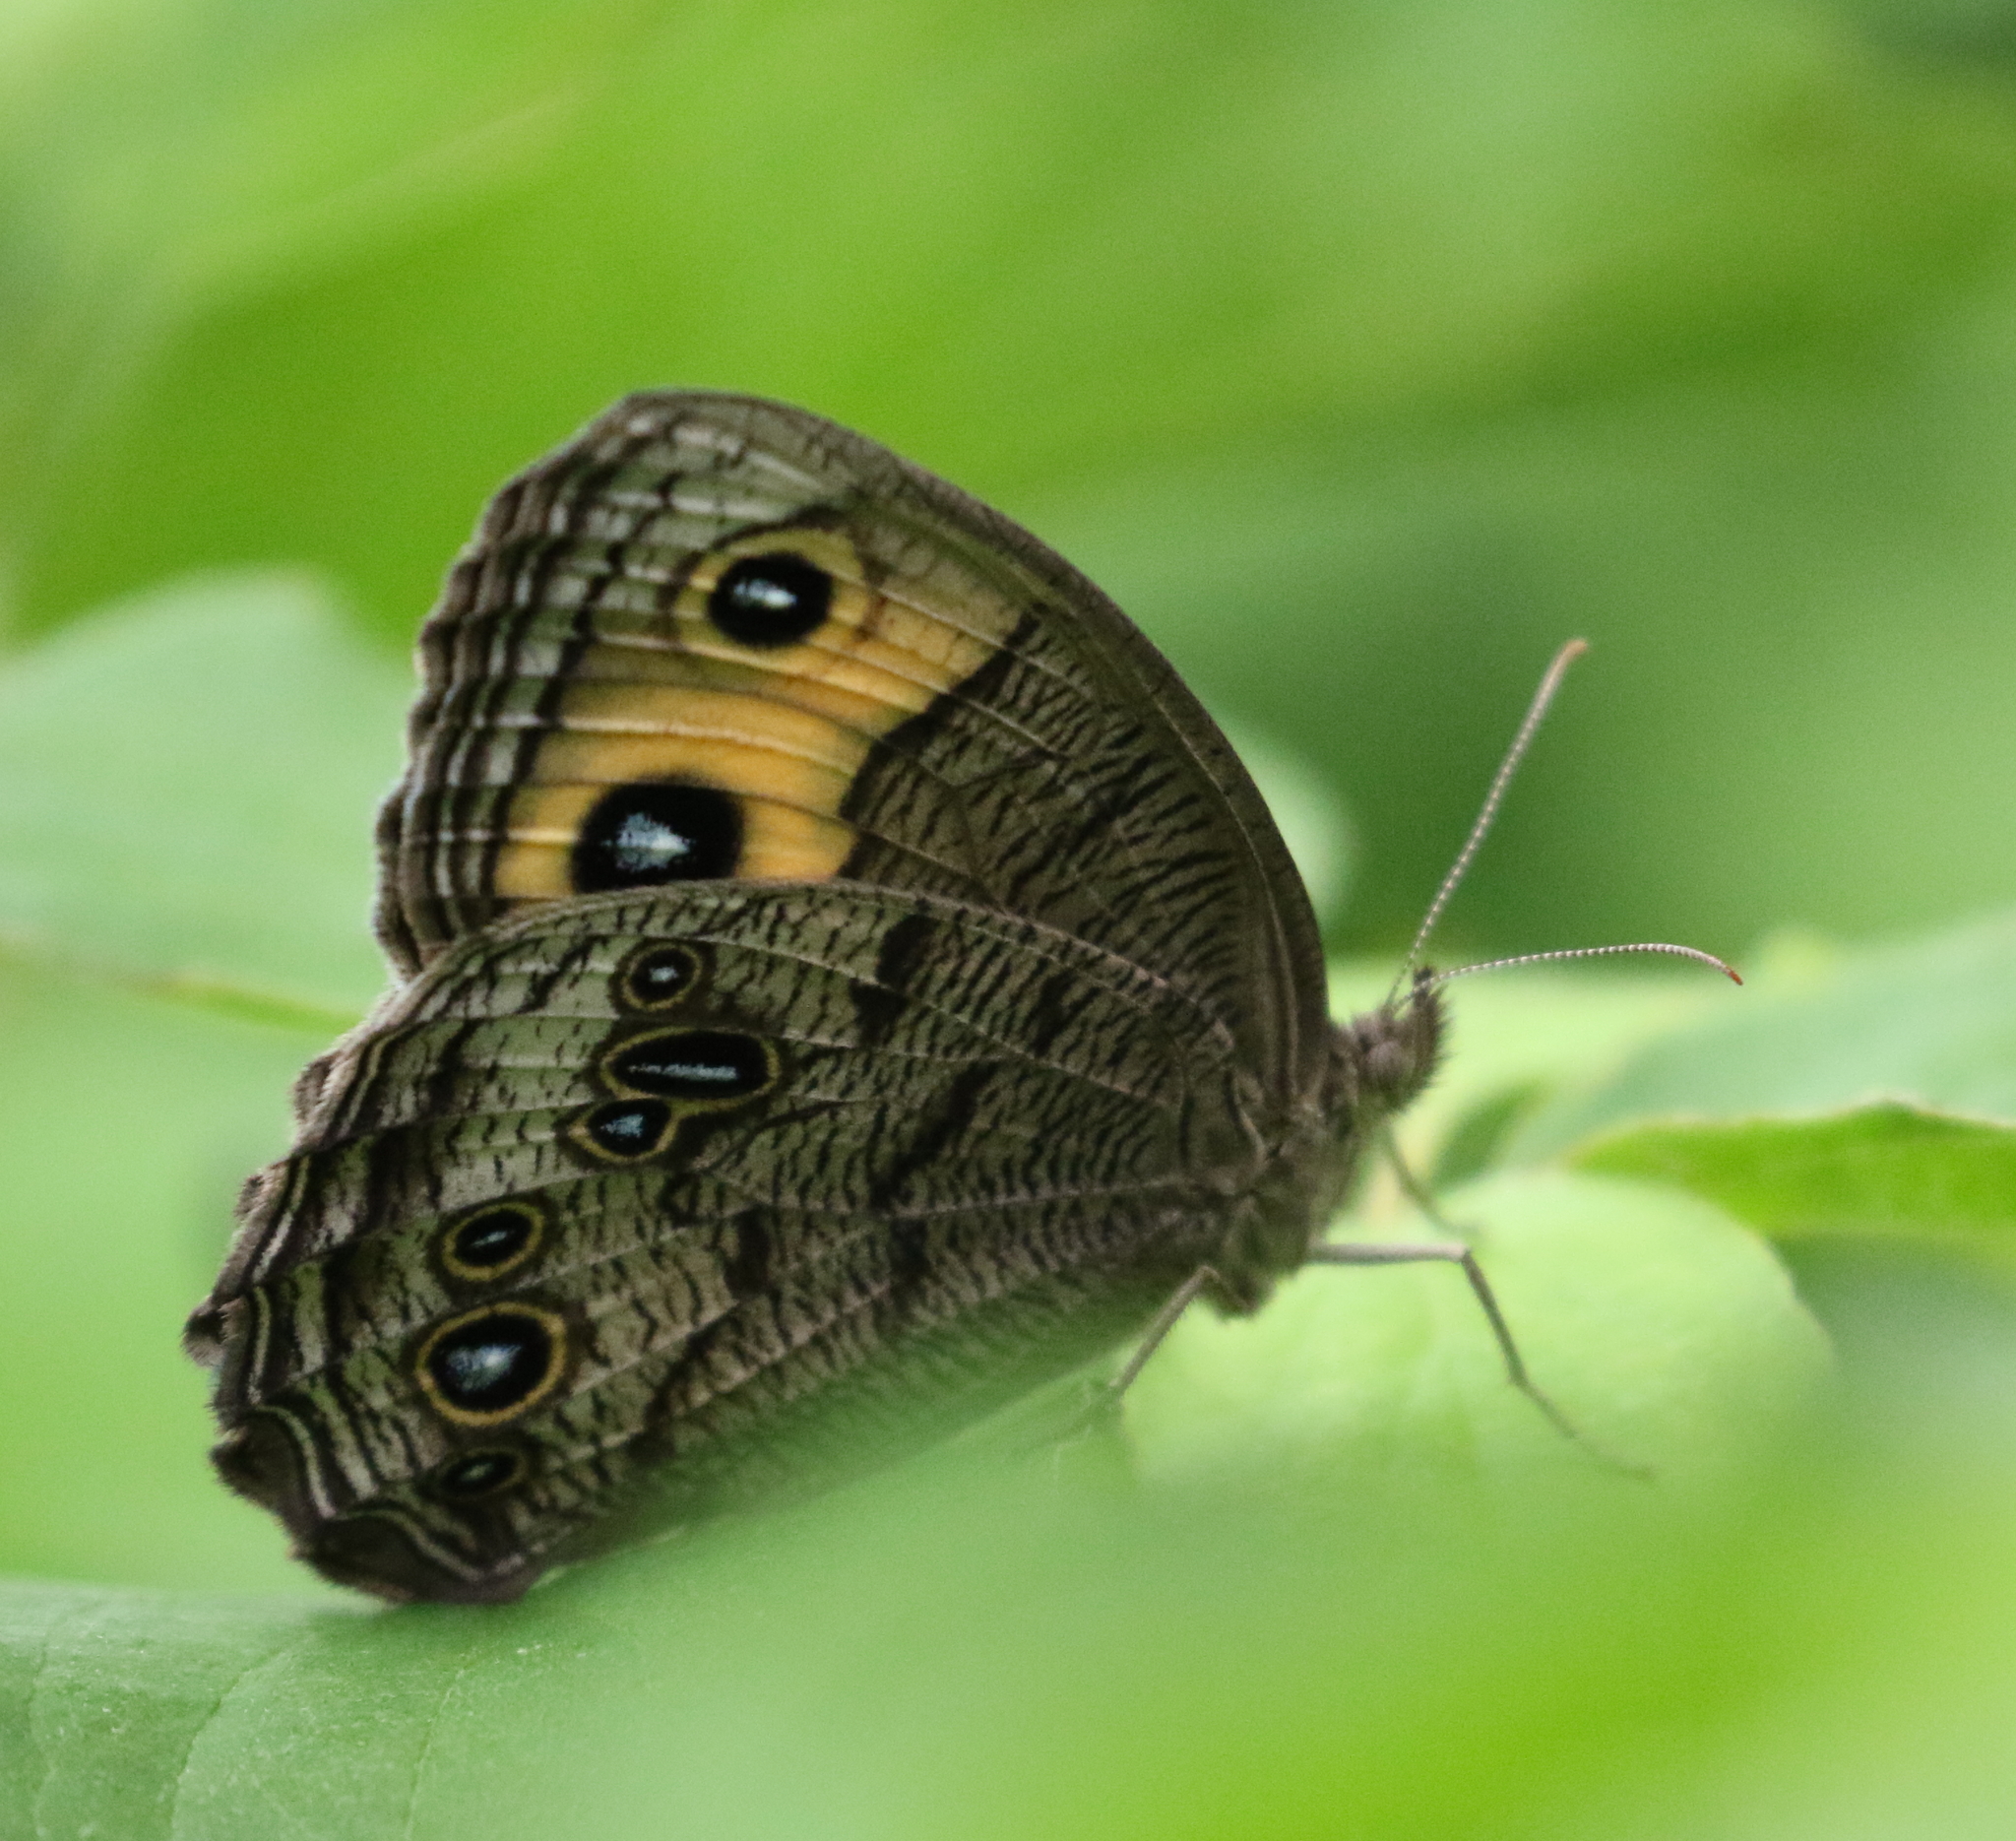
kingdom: Animalia
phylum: Arthropoda
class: Insecta
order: Lepidoptera
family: Nymphalidae
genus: Cercyonis
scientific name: Cercyonis pegala
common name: Common wood-nymph
